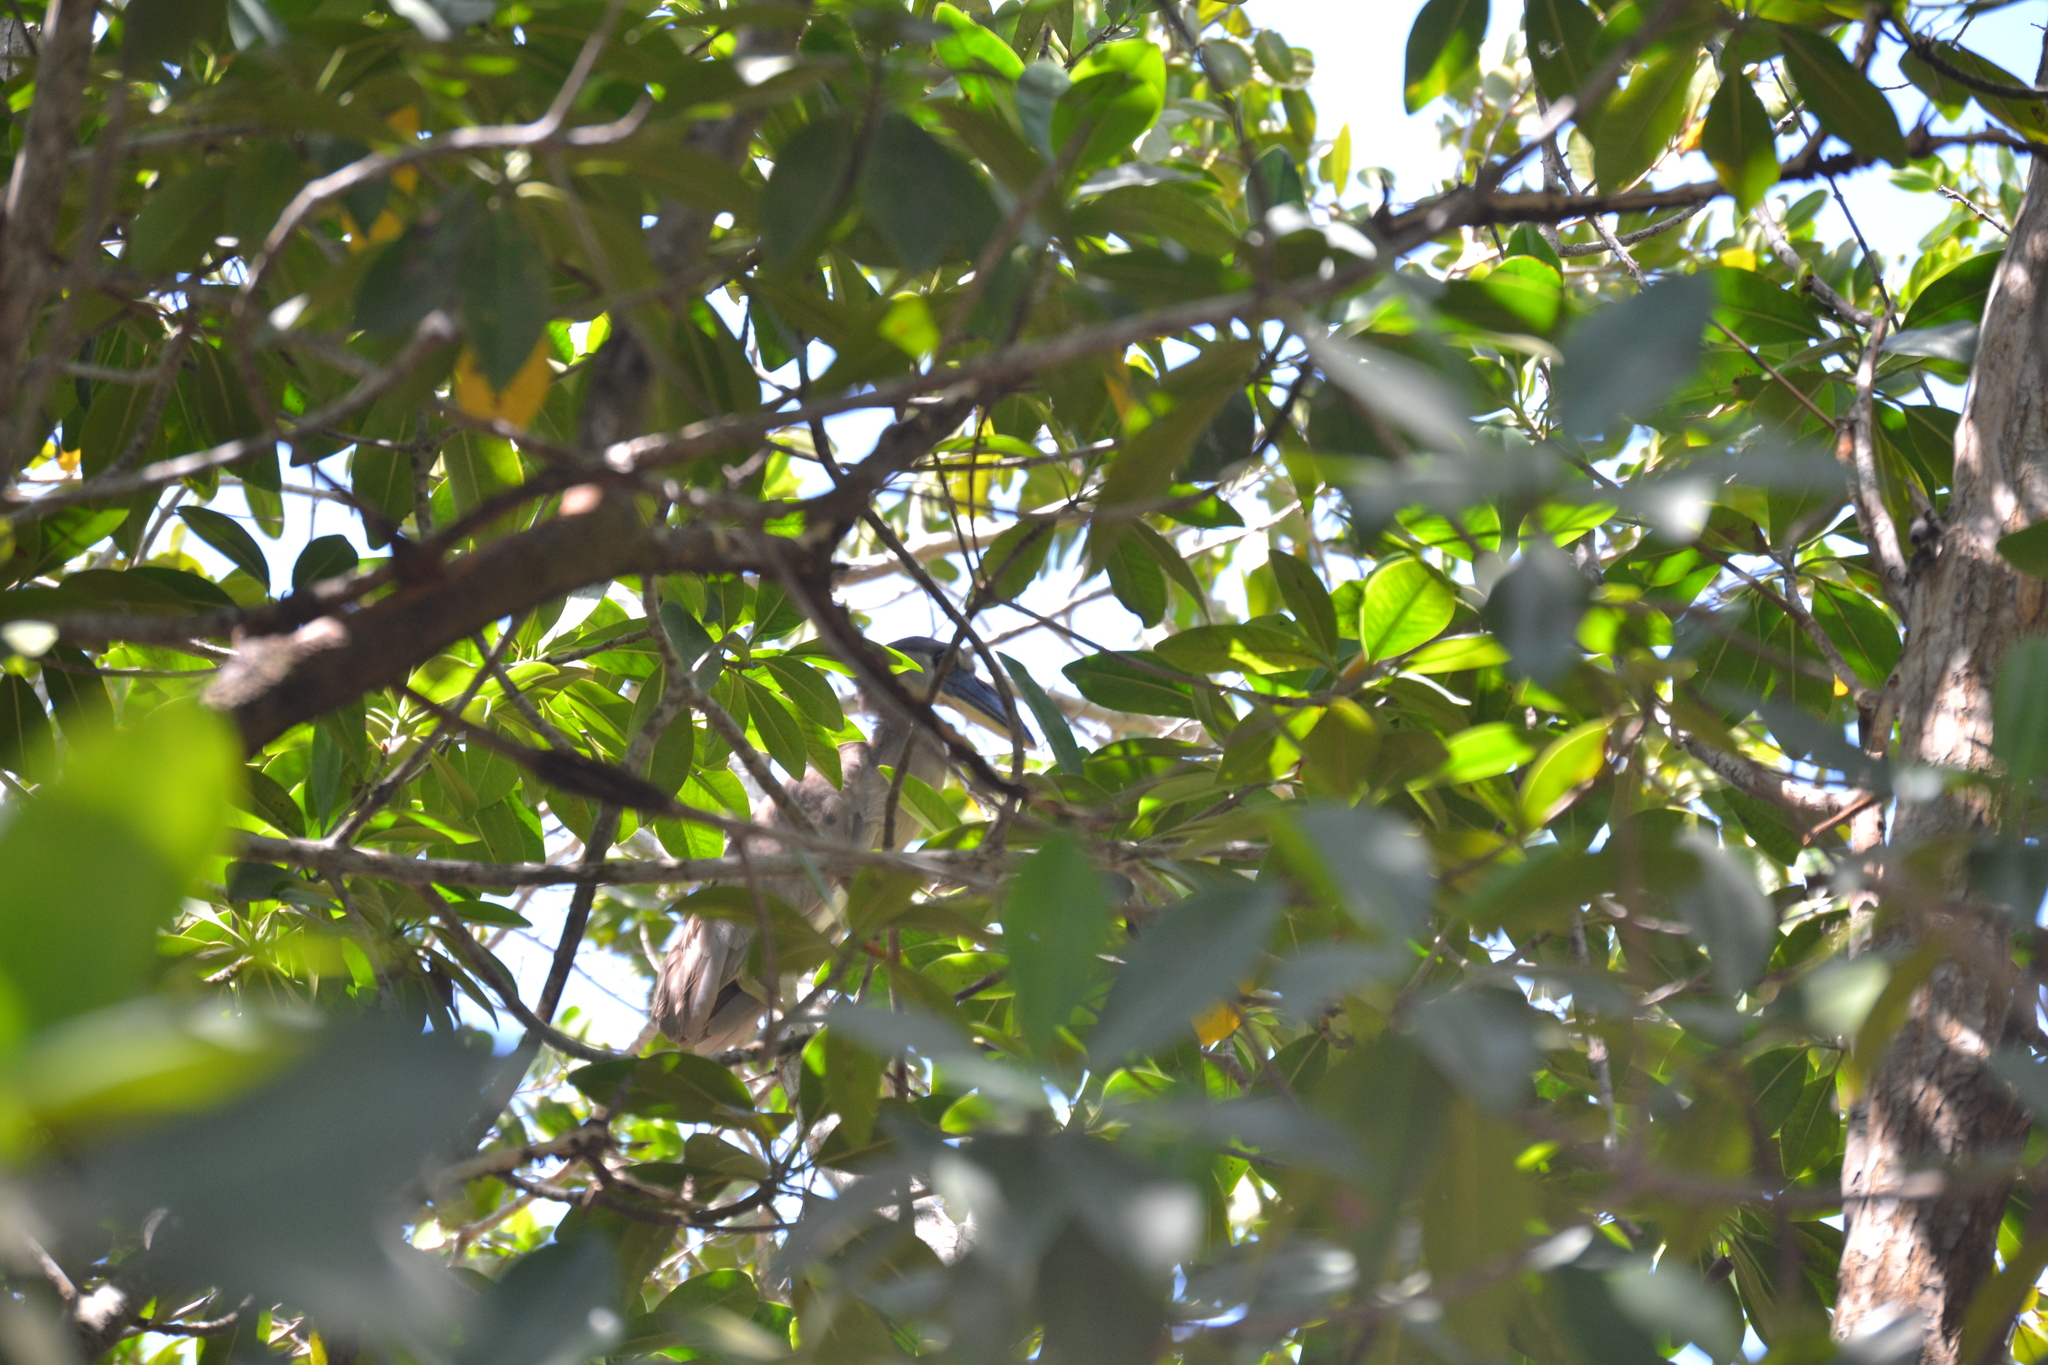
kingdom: Animalia
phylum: Chordata
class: Aves
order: Pelecaniformes
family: Ardeidae
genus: Cochlearius
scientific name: Cochlearius cochlearius
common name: Boat-billed heron
